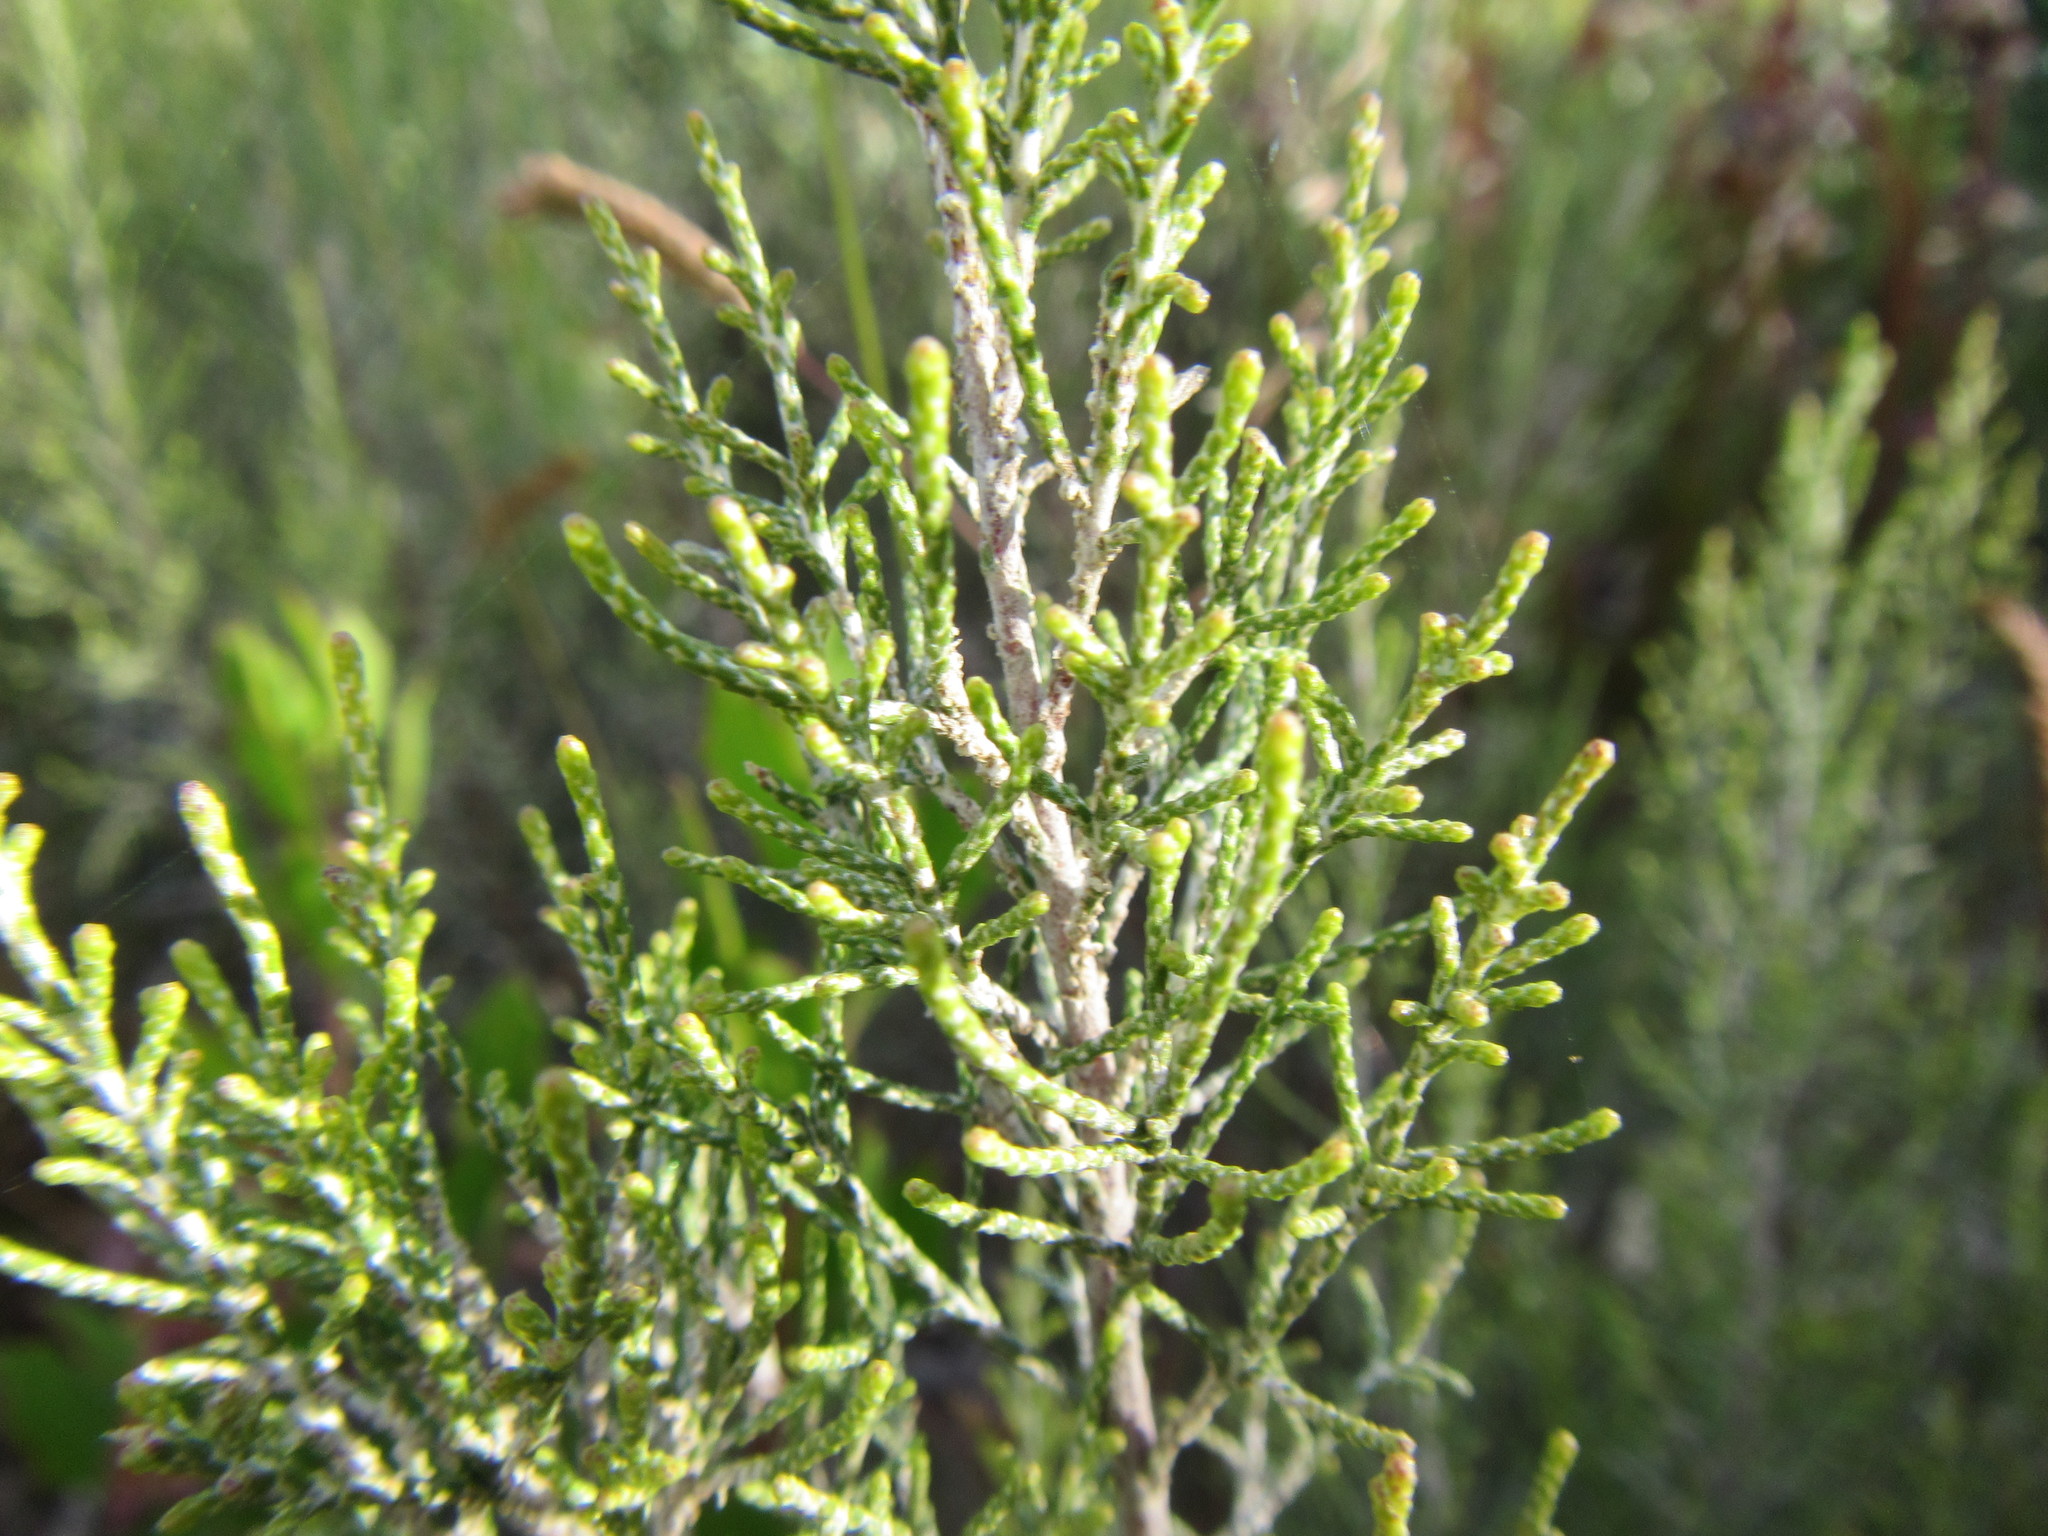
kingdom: Plantae
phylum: Tracheophyta
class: Magnoliopsida
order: Asterales
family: Asteraceae
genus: Dicerothamnus
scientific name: Dicerothamnus rhinocerotis
